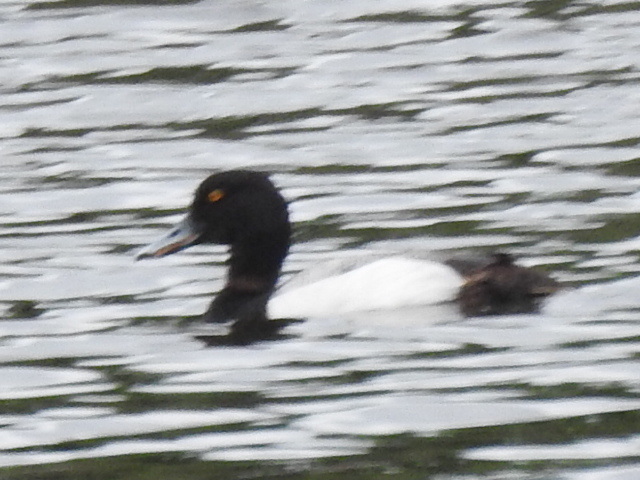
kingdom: Animalia
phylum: Chordata
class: Aves
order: Anseriformes
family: Anatidae
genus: Aythya
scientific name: Aythya affinis
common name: Lesser scaup
